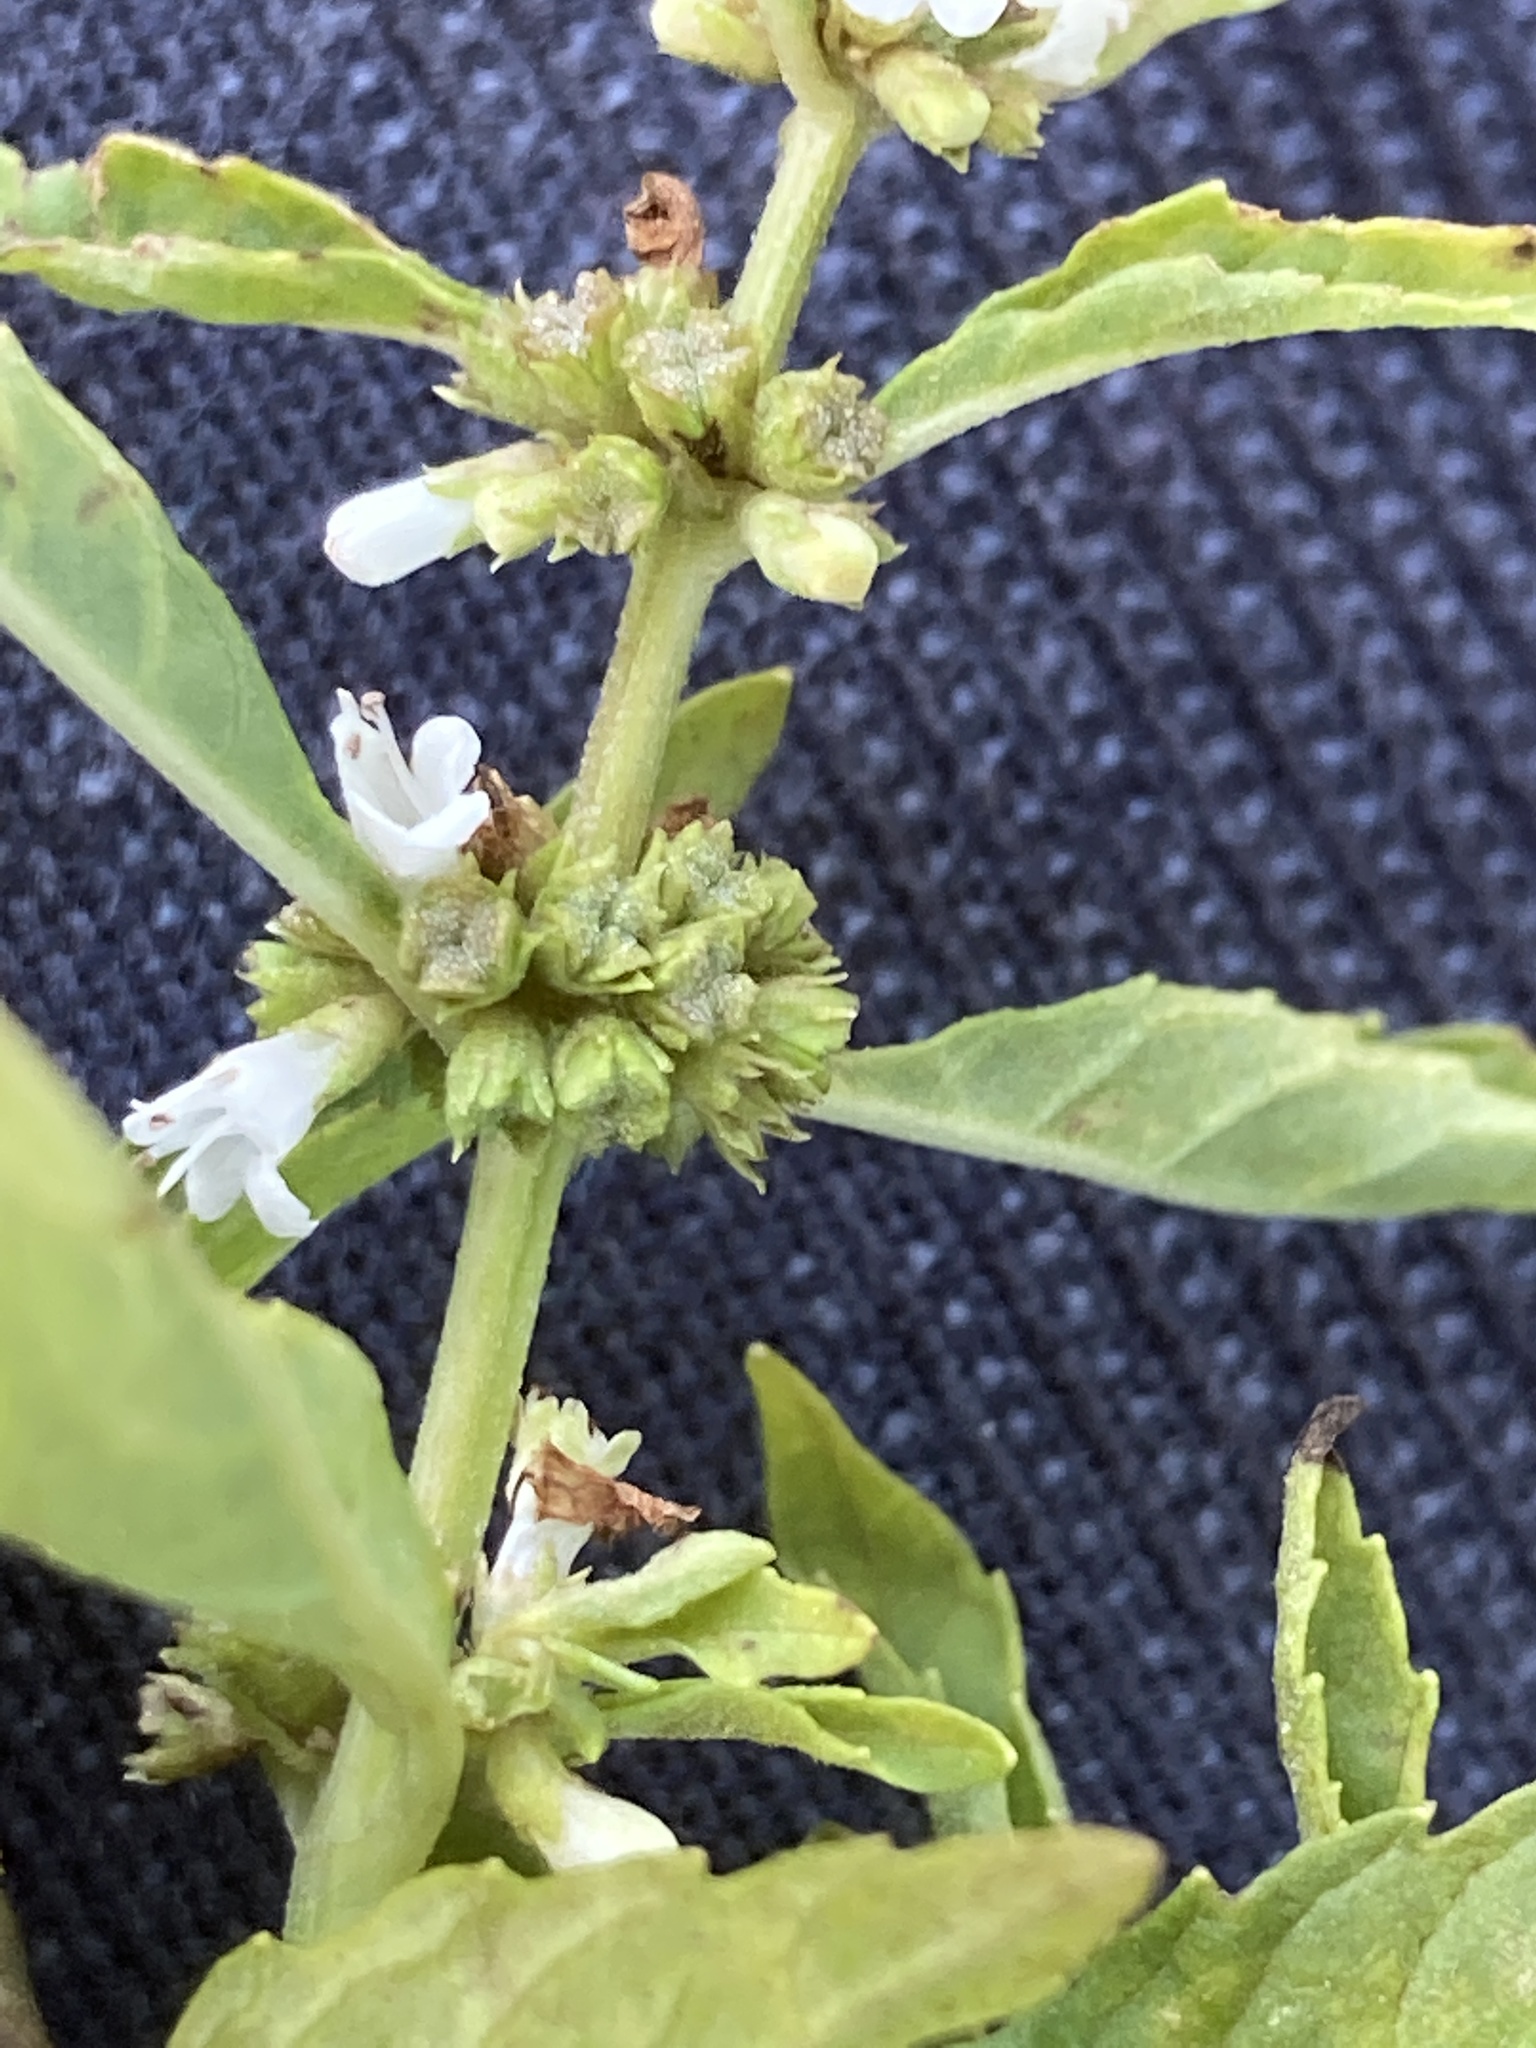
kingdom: Plantae
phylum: Tracheophyta
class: Magnoliopsida
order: Lamiales
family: Lamiaceae
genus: Lycopus
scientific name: Lycopus uniflorus
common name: Northern bugleweed
